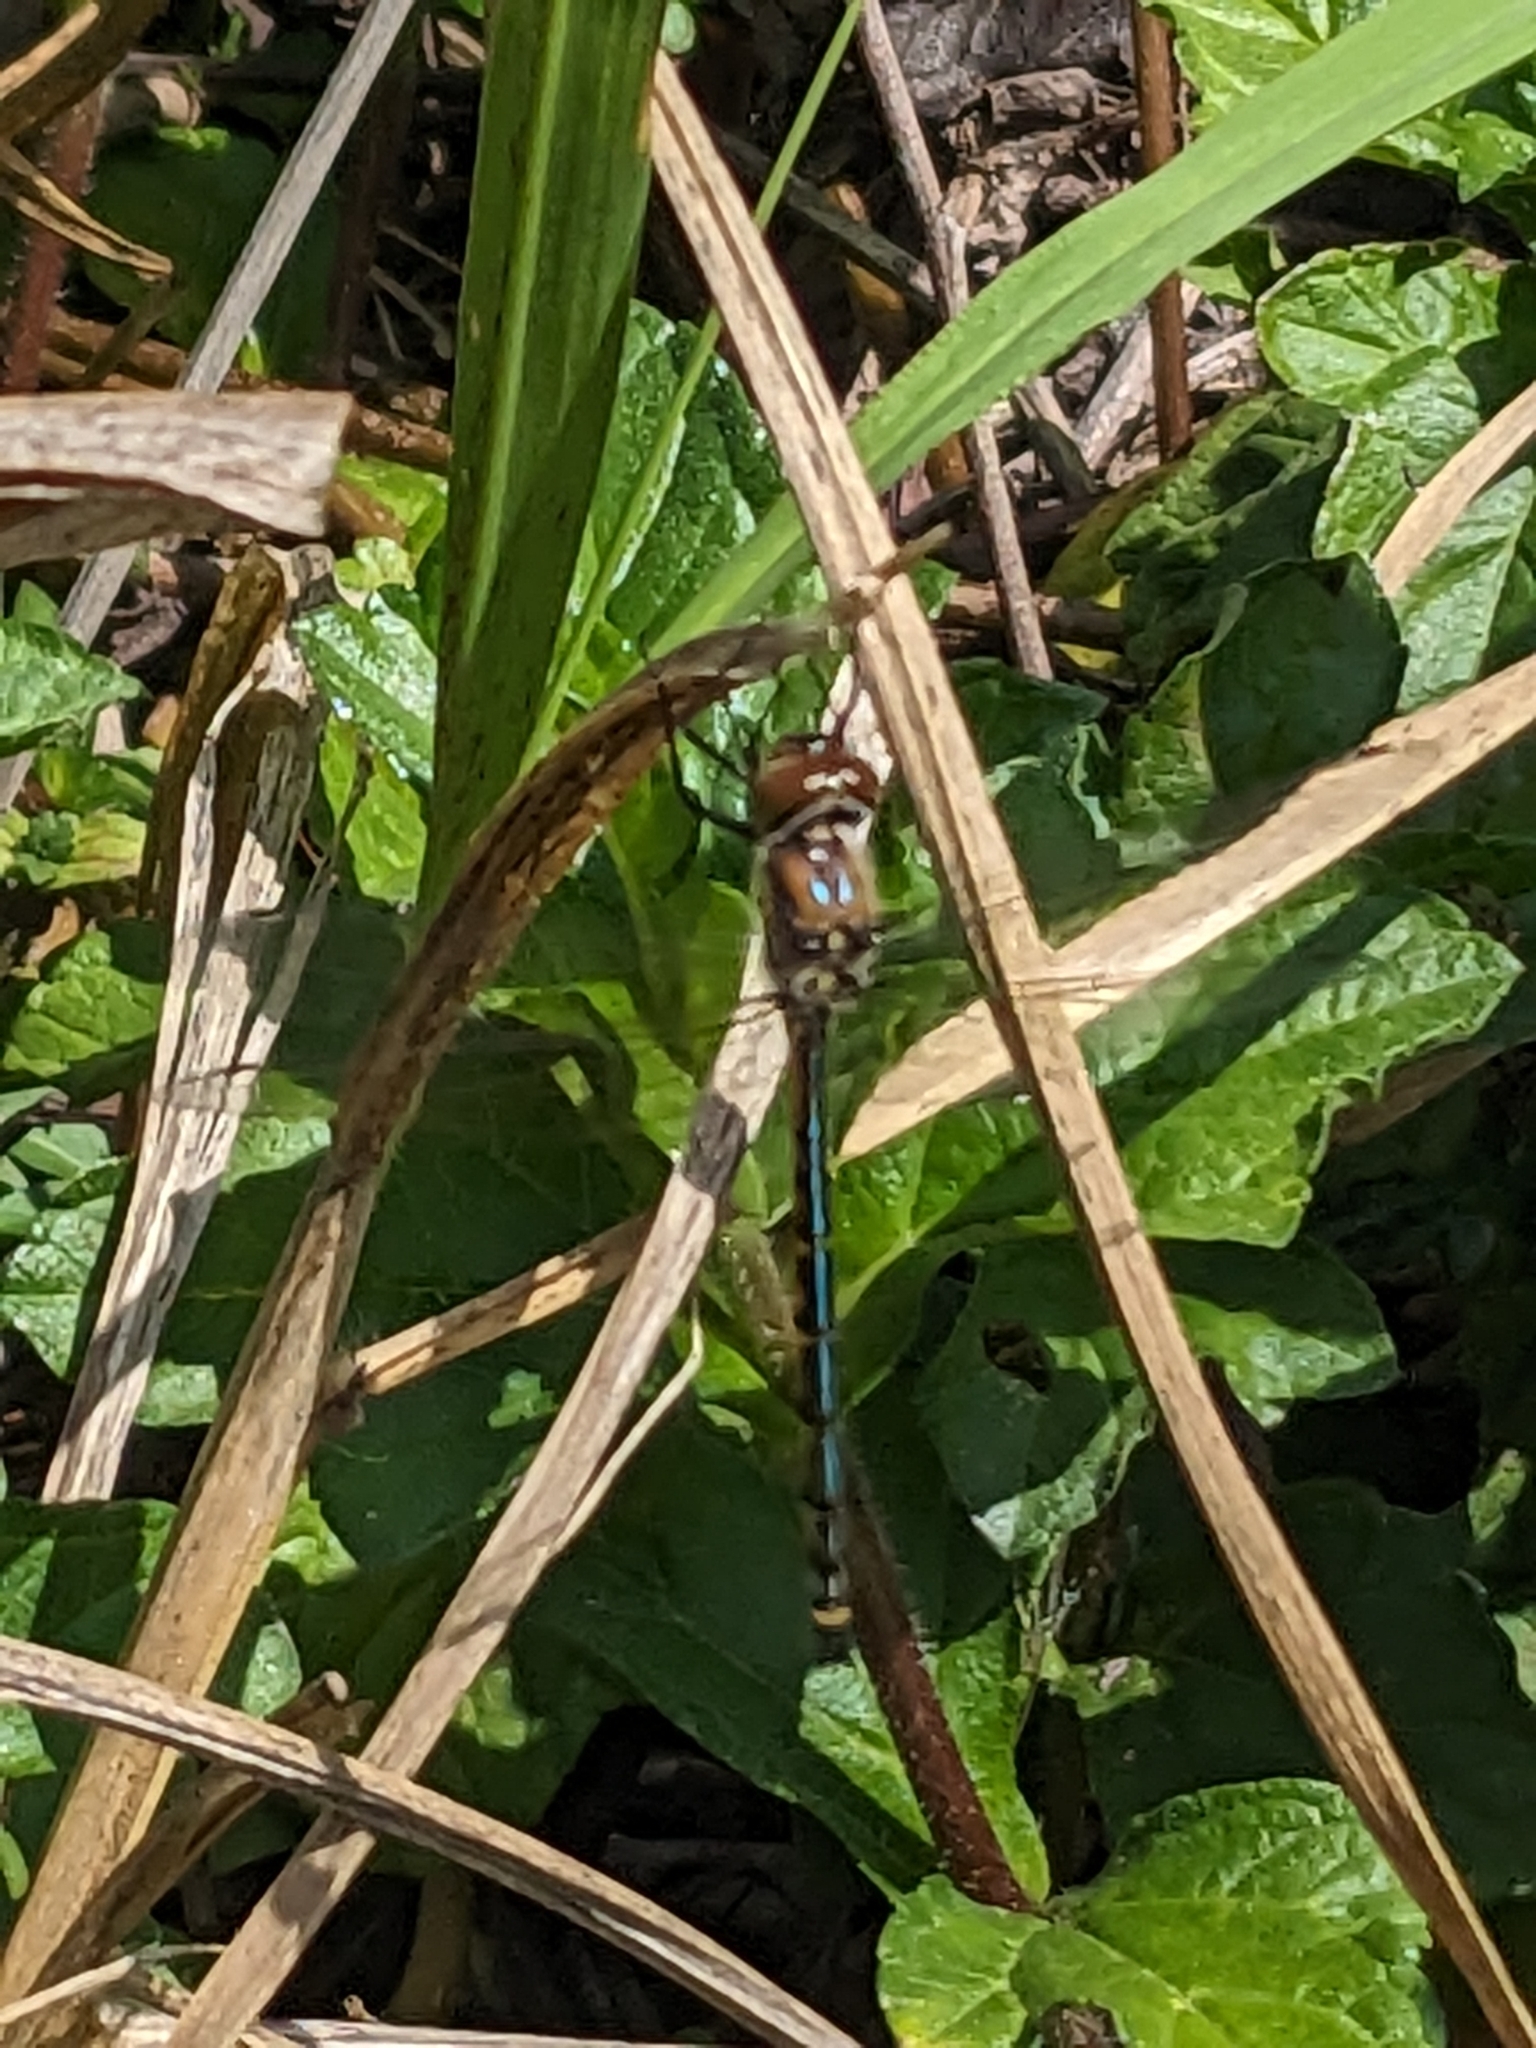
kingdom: Animalia
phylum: Arthropoda
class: Insecta
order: Odonata
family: Corduliidae
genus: Hemicordulia
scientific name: Hemicordulia australiae
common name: Sentry dragonfly
